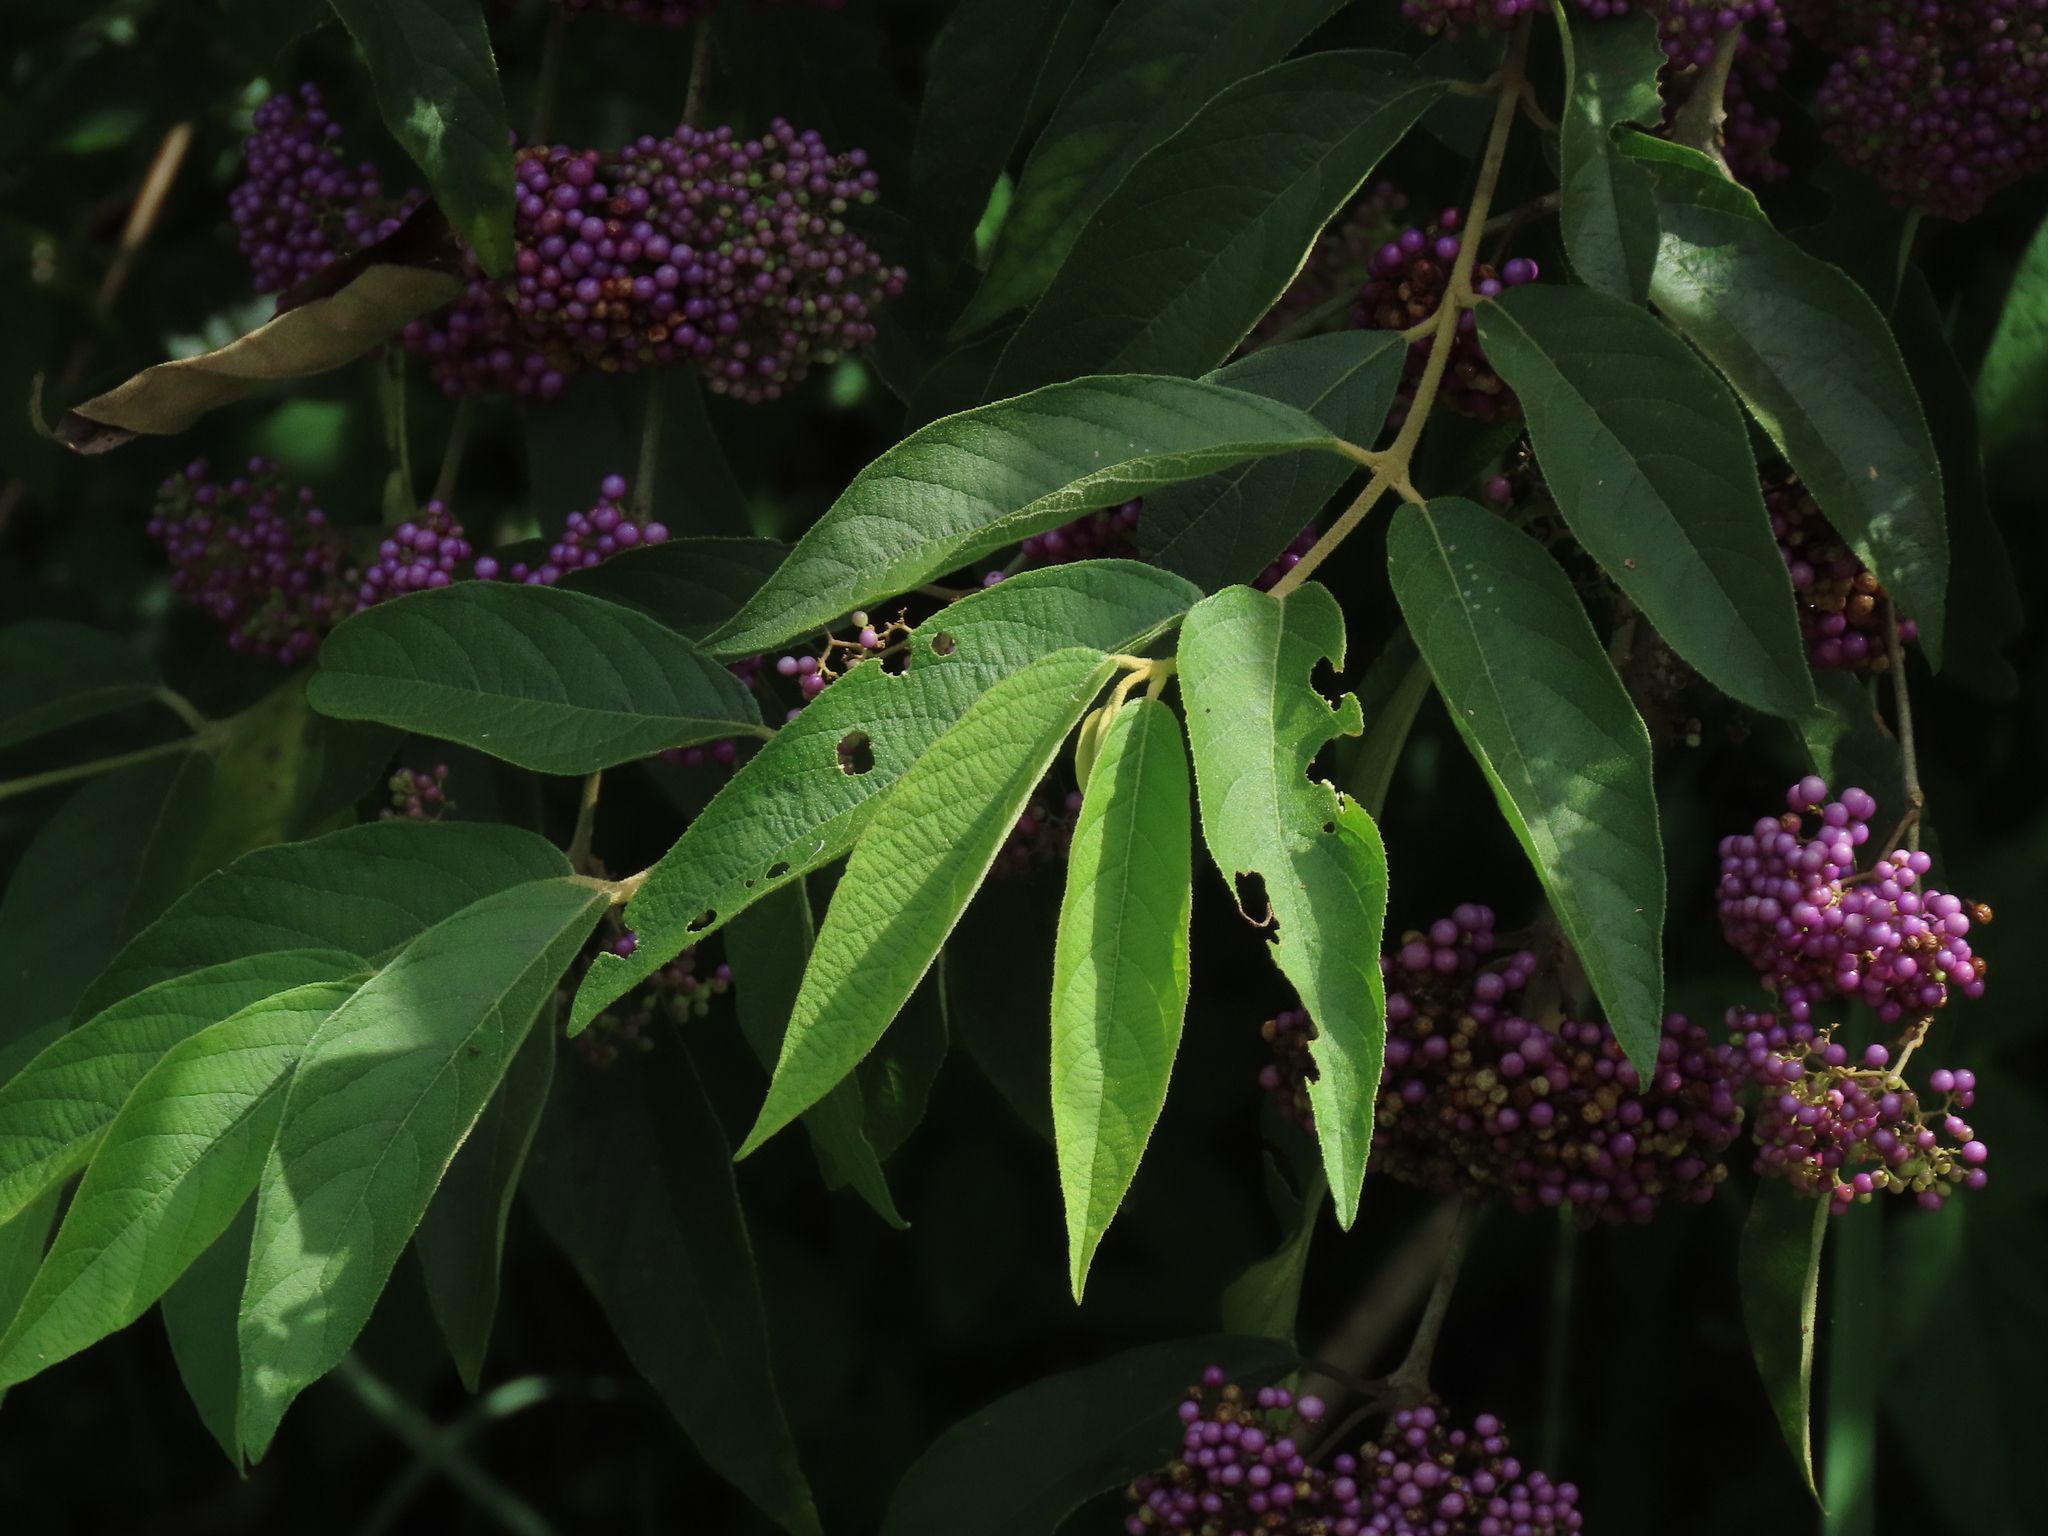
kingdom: Plantae
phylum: Tracheophyta
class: Magnoliopsida
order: Lamiales
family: Lamiaceae
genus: Callicarpa
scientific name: Callicarpa pedunculata
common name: Velvetleaf
